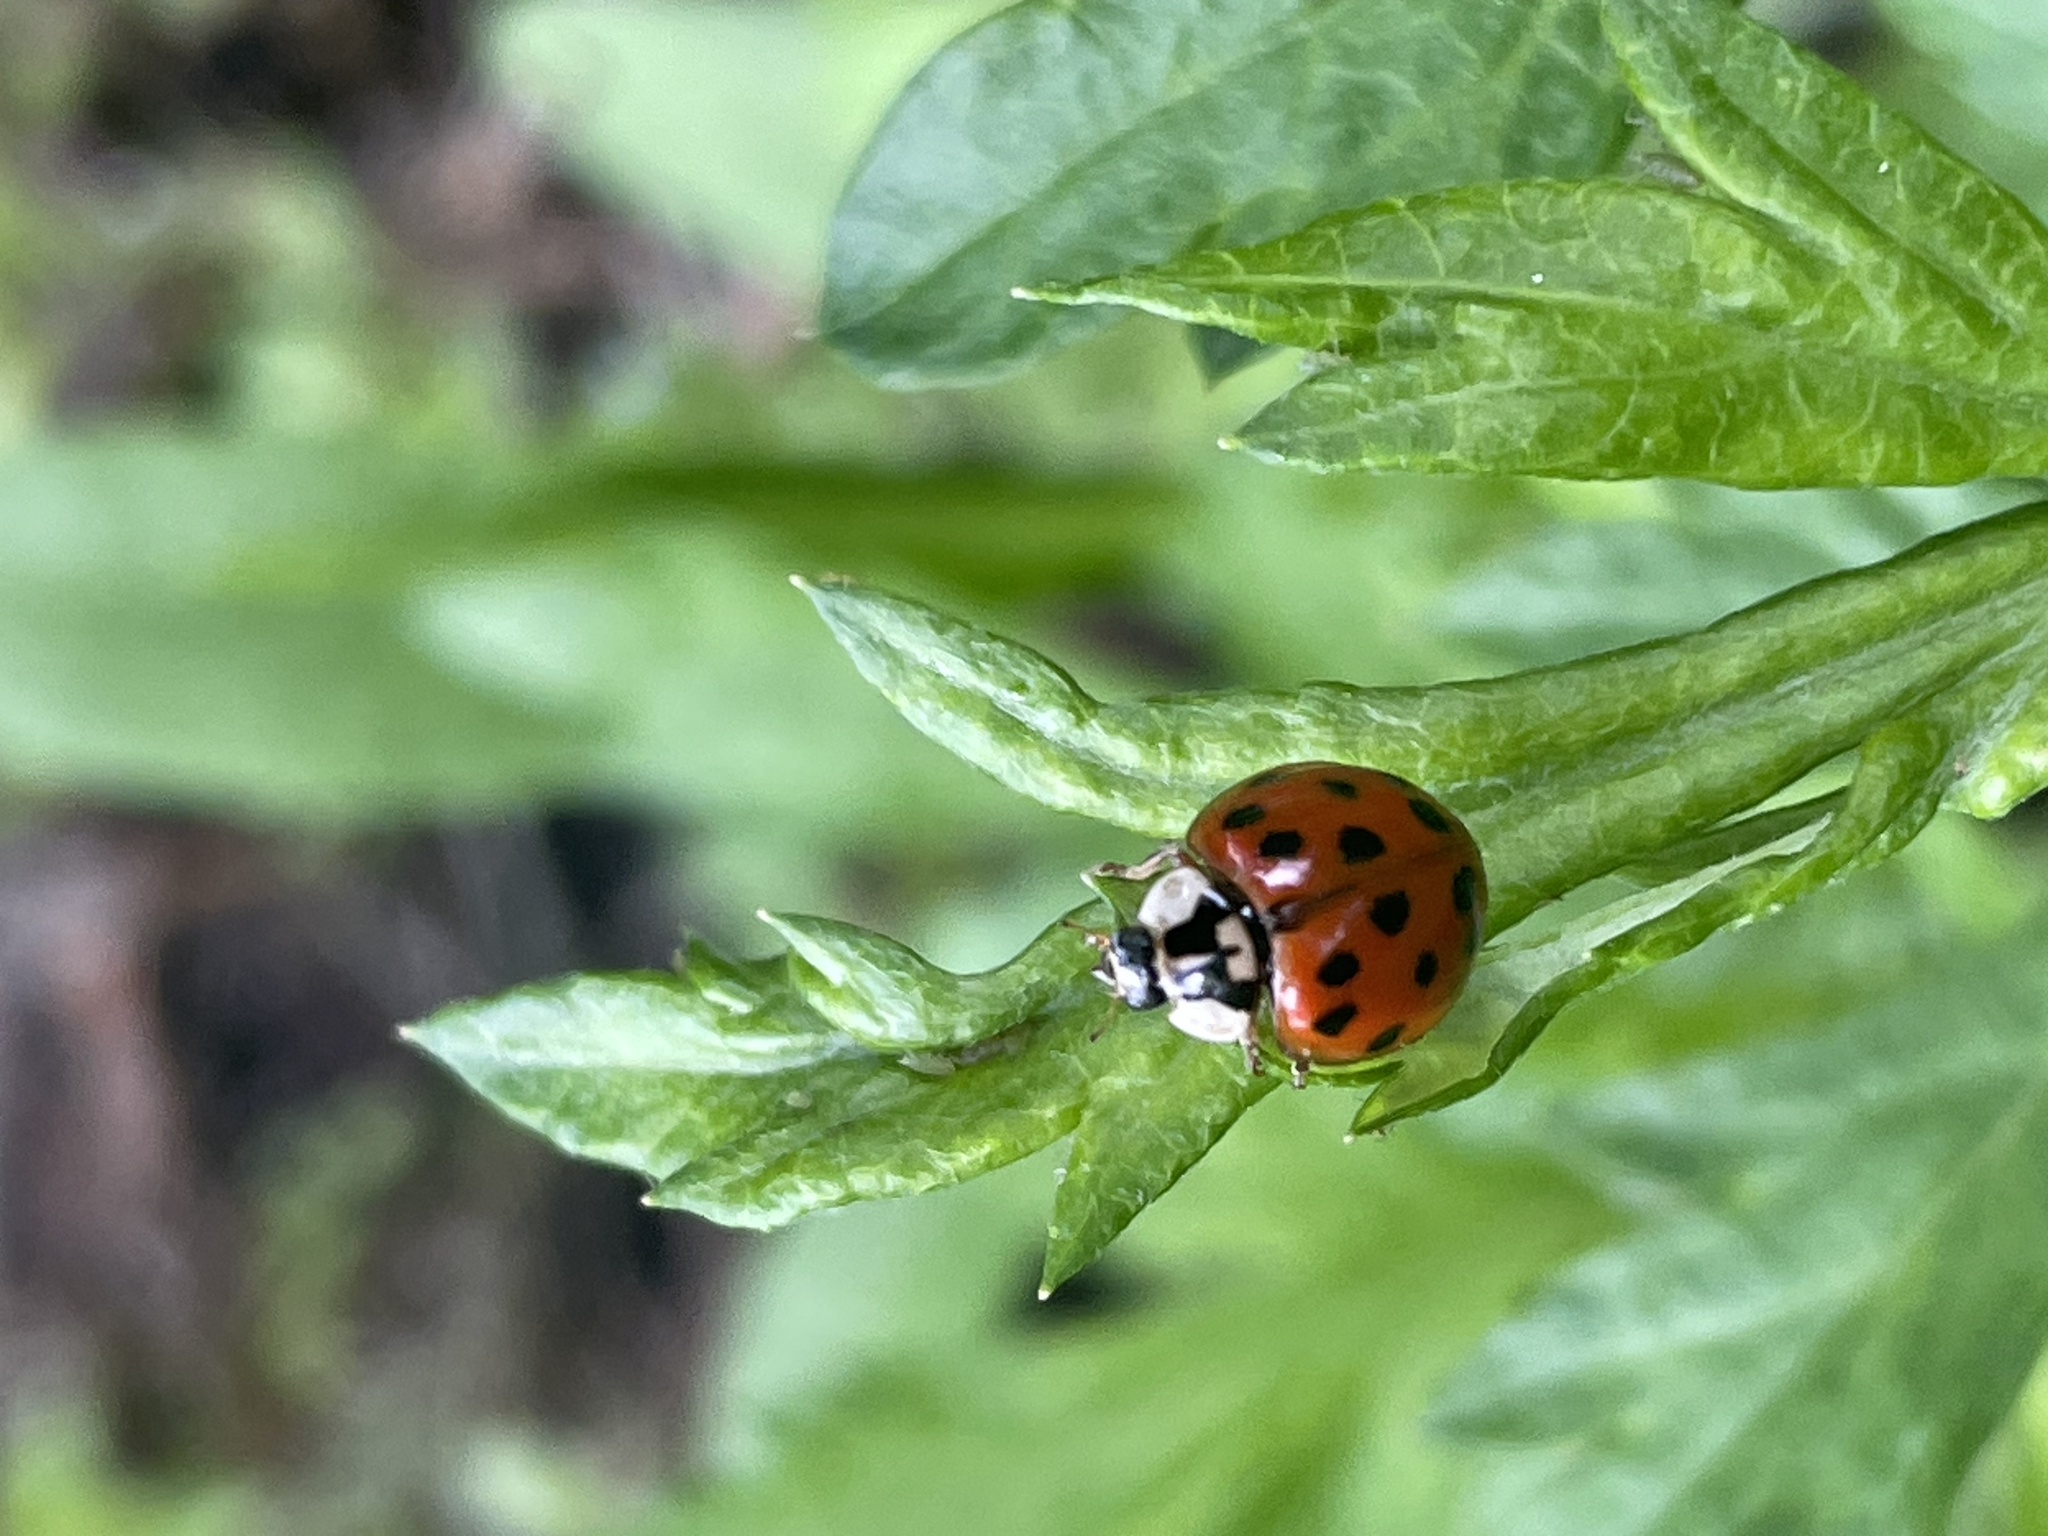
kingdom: Animalia
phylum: Arthropoda
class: Insecta
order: Coleoptera
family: Coccinellidae
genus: Harmonia
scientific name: Harmonia axyridis
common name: Harlequin ladybird
